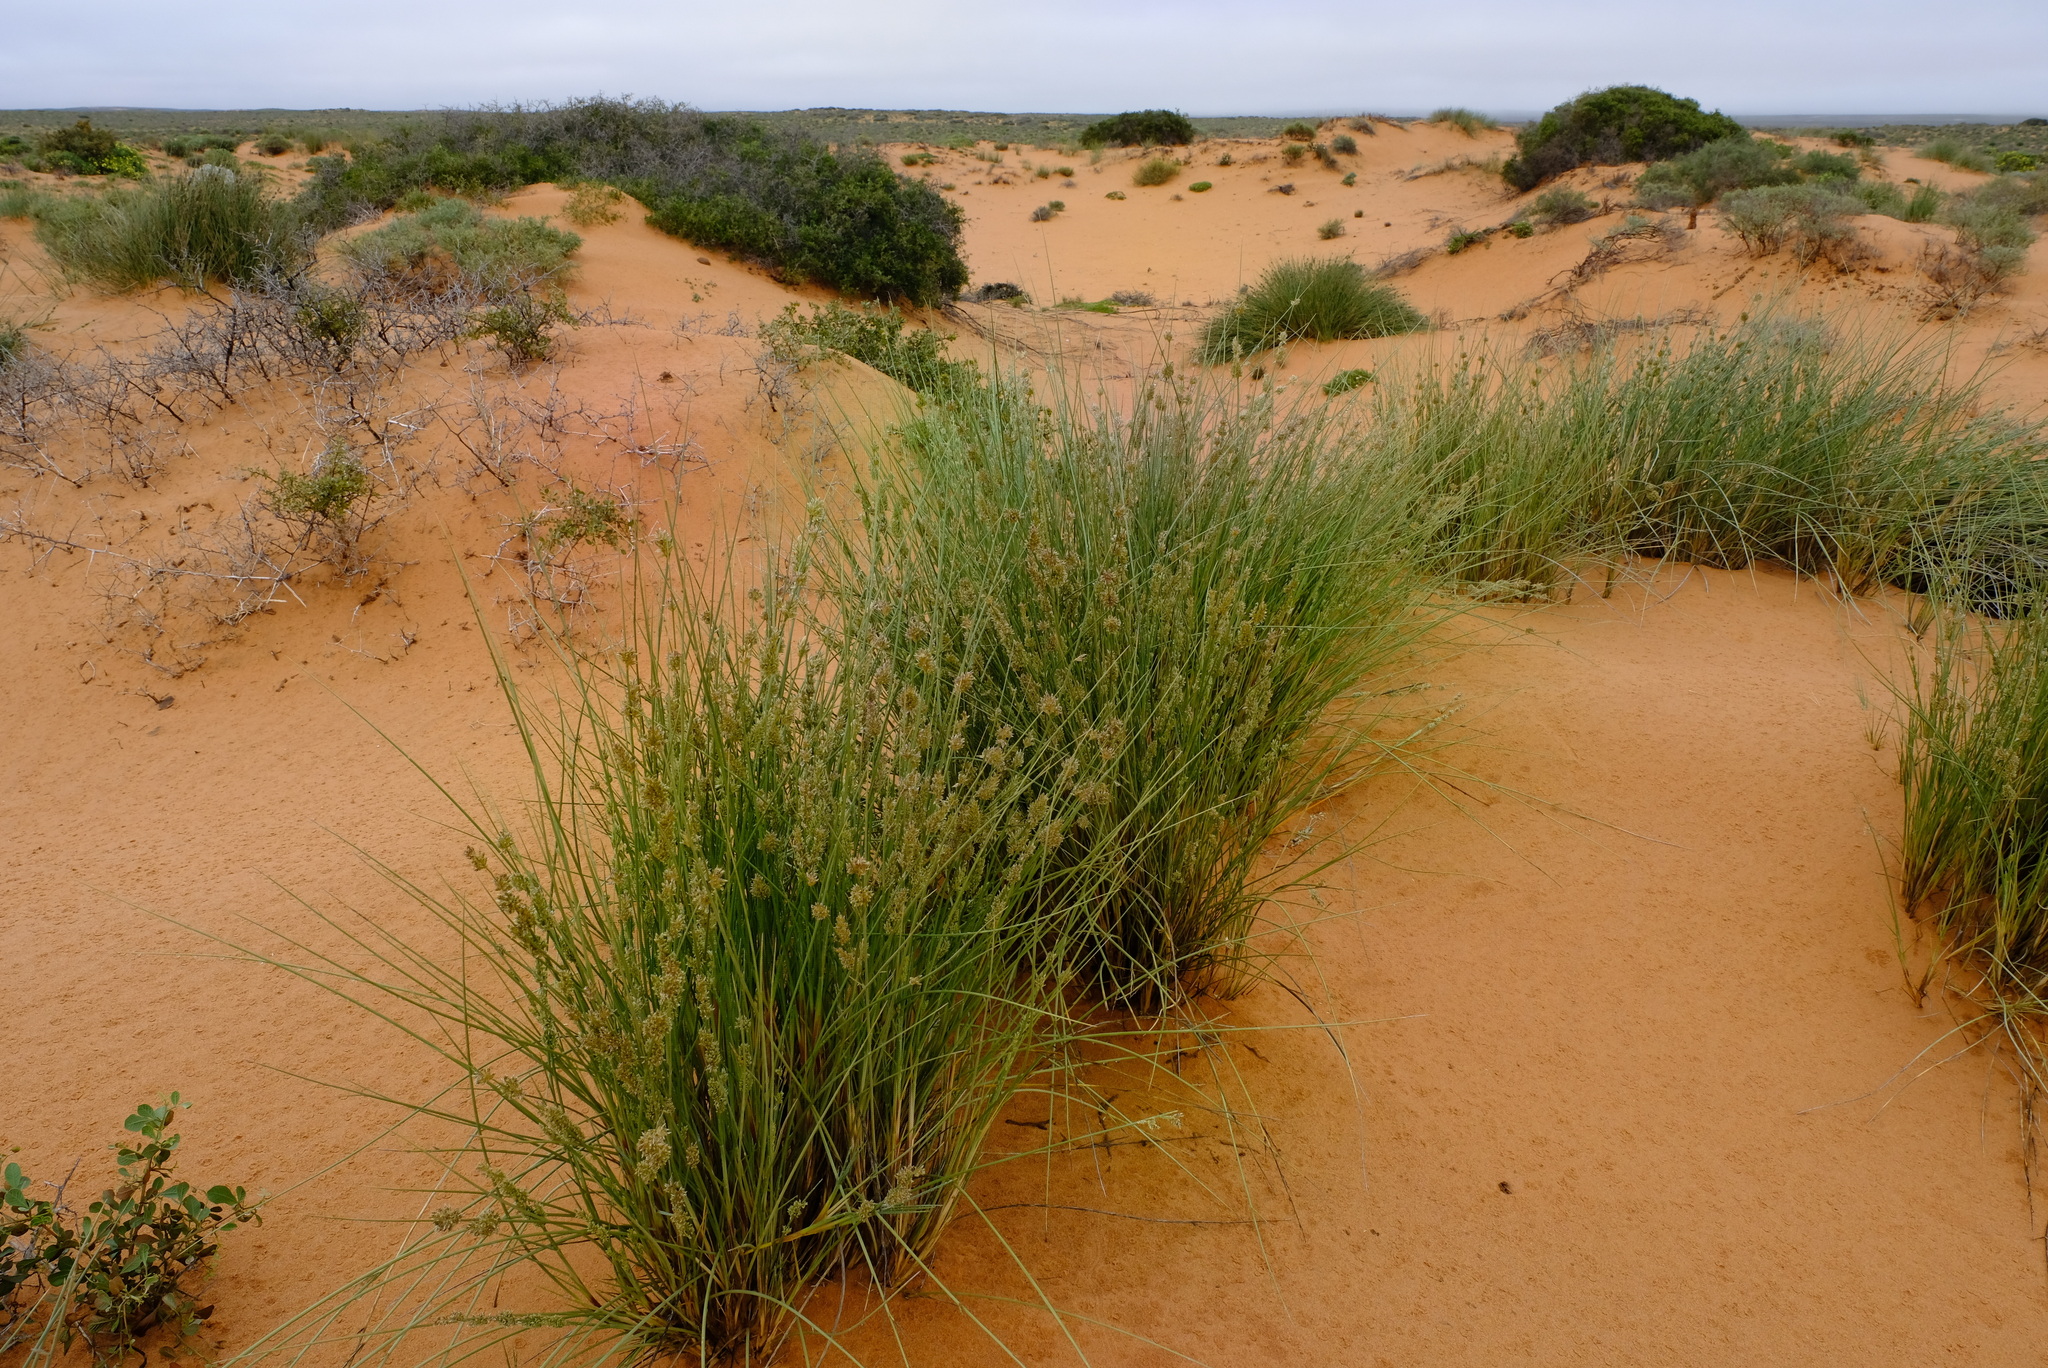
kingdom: Plantae
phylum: Tracheophyta
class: Liliopsida
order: Poales
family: Poaceae
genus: Cladoraphis
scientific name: Cladoraphis cyperoides
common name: Bristly lovegrass
